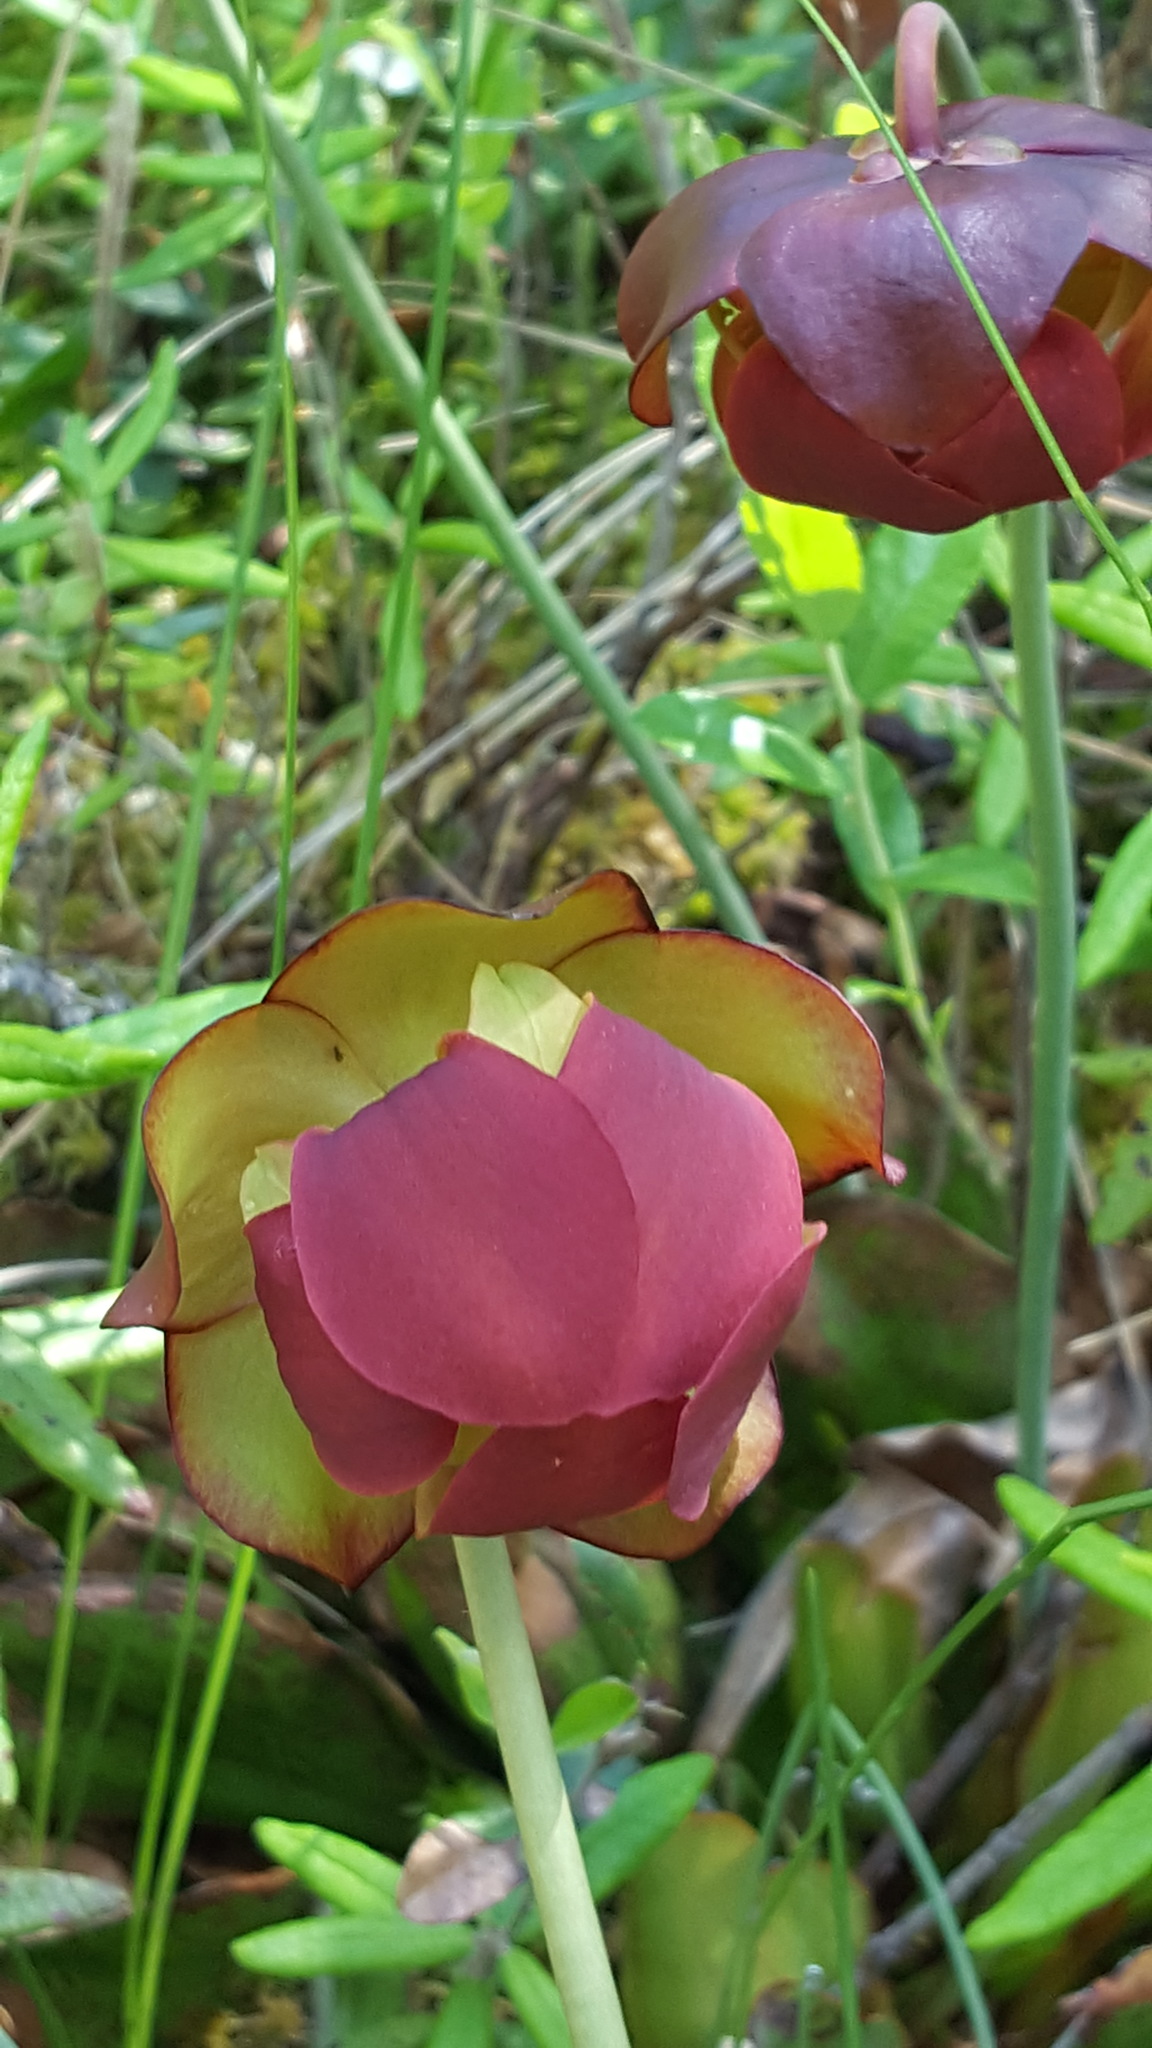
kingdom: Plantae
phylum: Tracheophyta
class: Magnoliopsida
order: Ericales
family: Sarraceniaceae
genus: Sarracenia
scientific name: Sarracenia purpurea
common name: Pitcherplant
